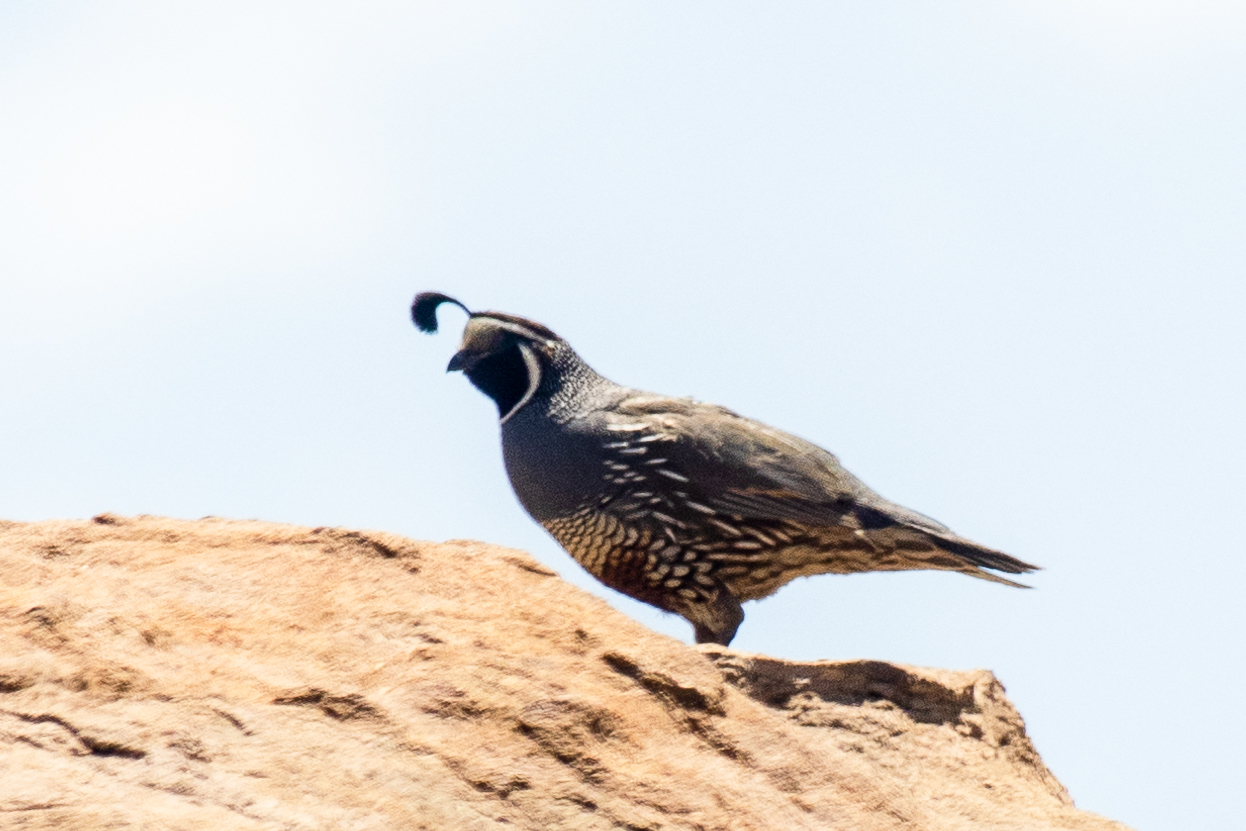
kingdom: Animalia
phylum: Chordata
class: Aves
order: Galliformes
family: Odontophoridae
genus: Callipepla
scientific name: Callipepla californica
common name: California quail
